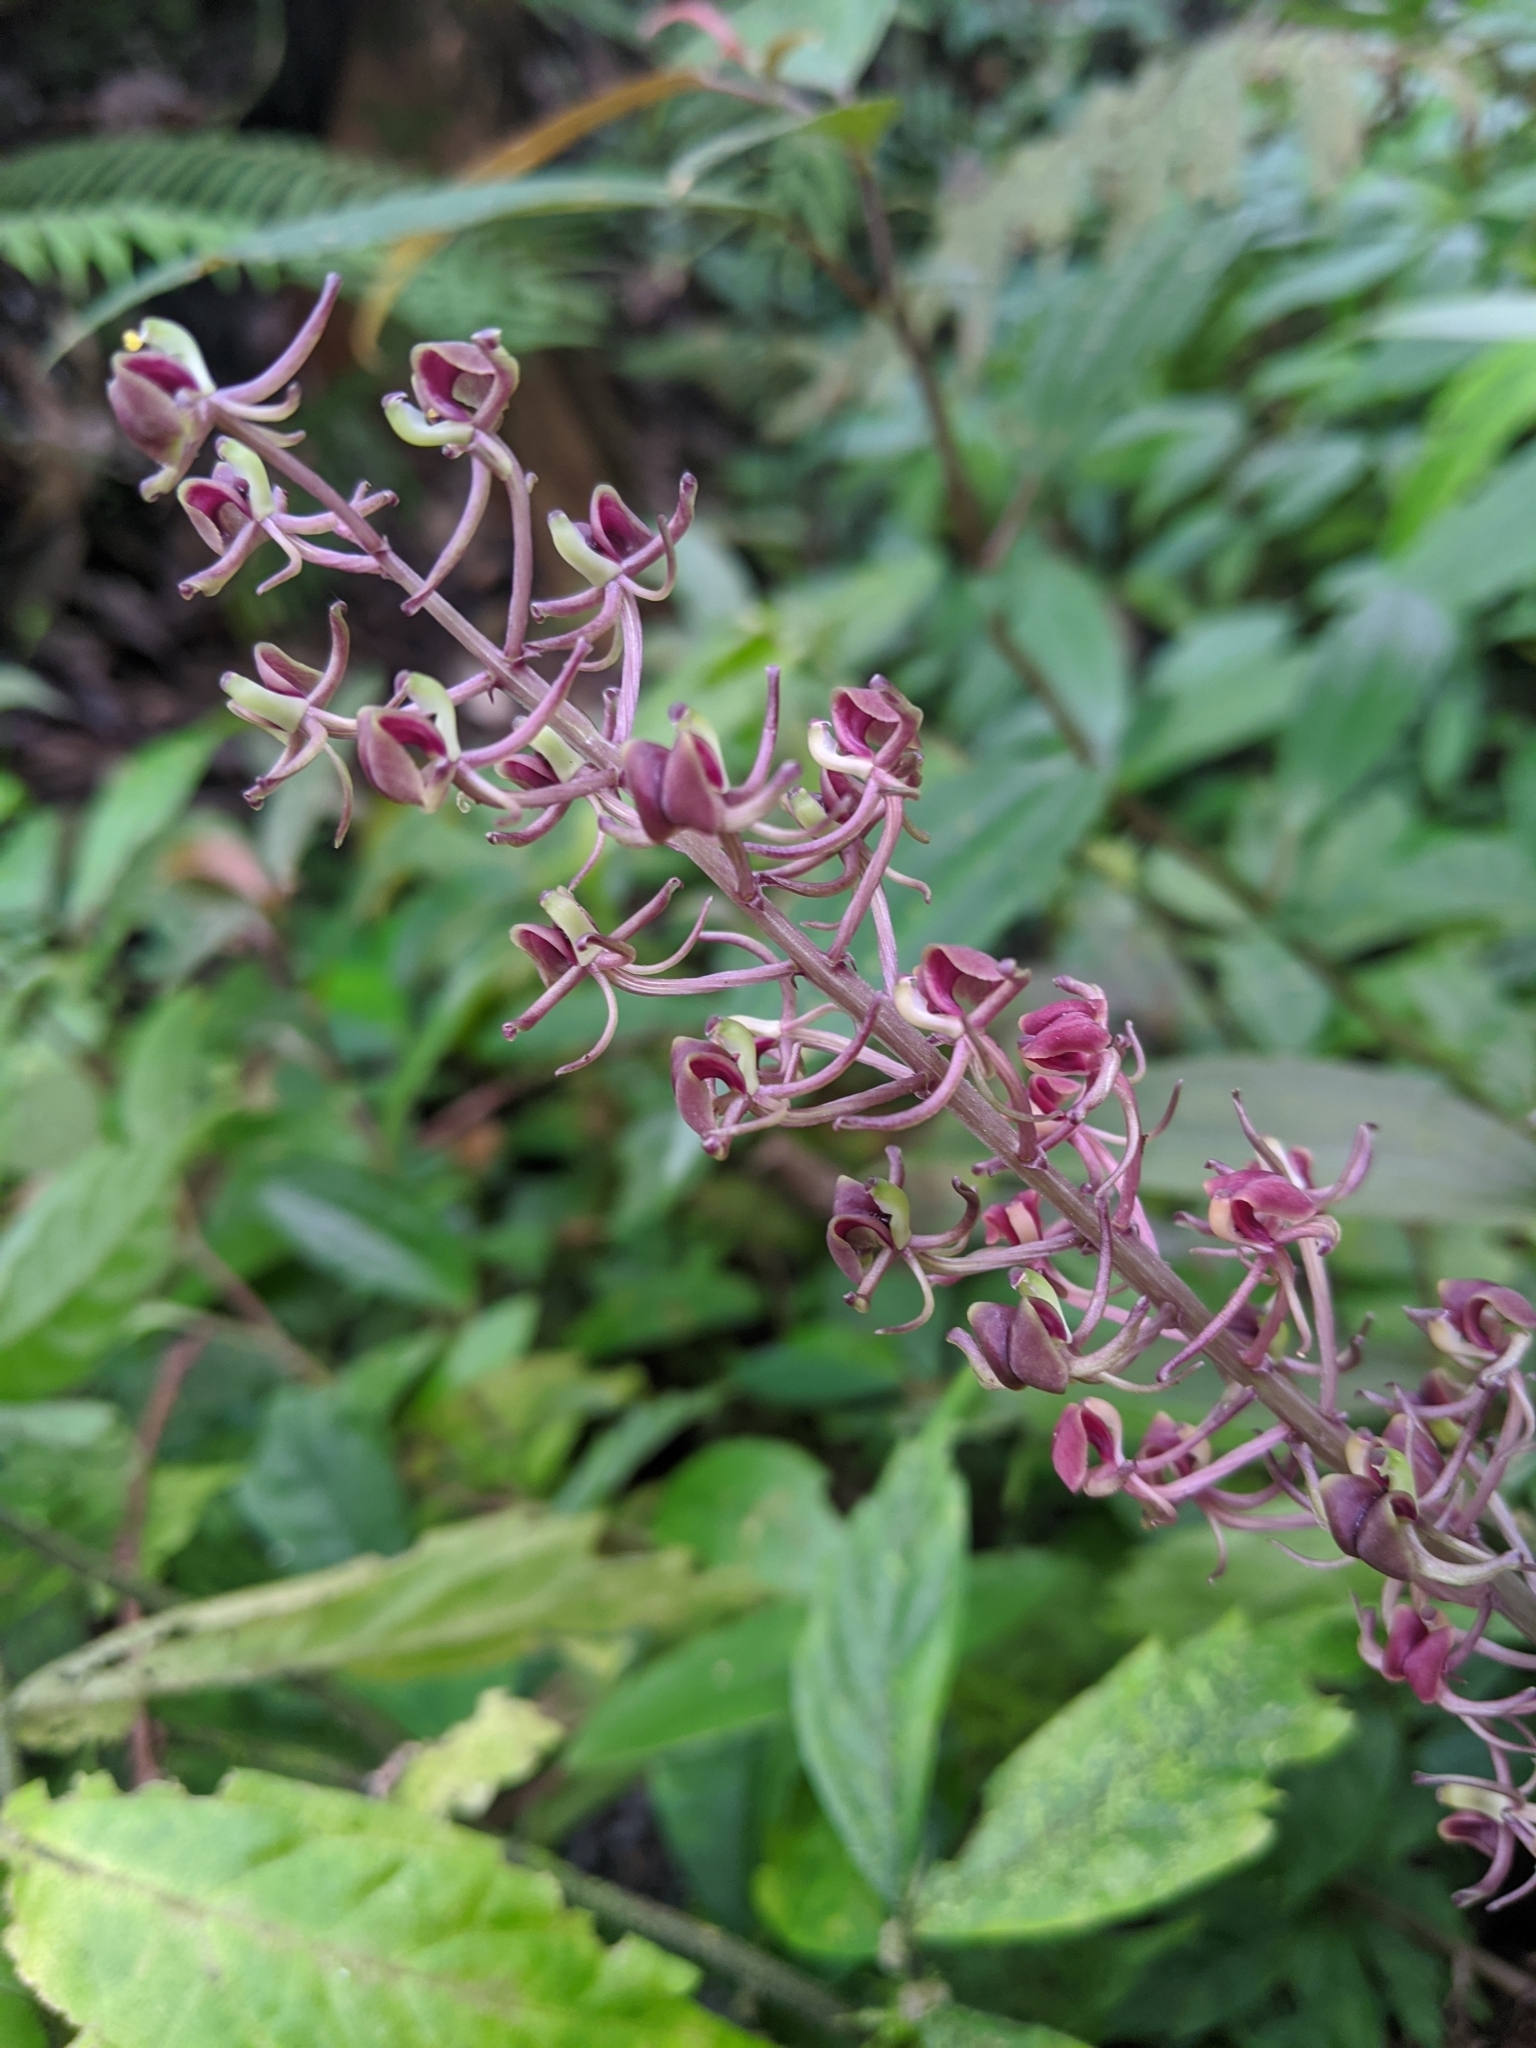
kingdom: Plantae
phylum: Tracheophyta
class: Liliopsida
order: Asparagales
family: Orchidaceae
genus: Liparis
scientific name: Liparis formosana
